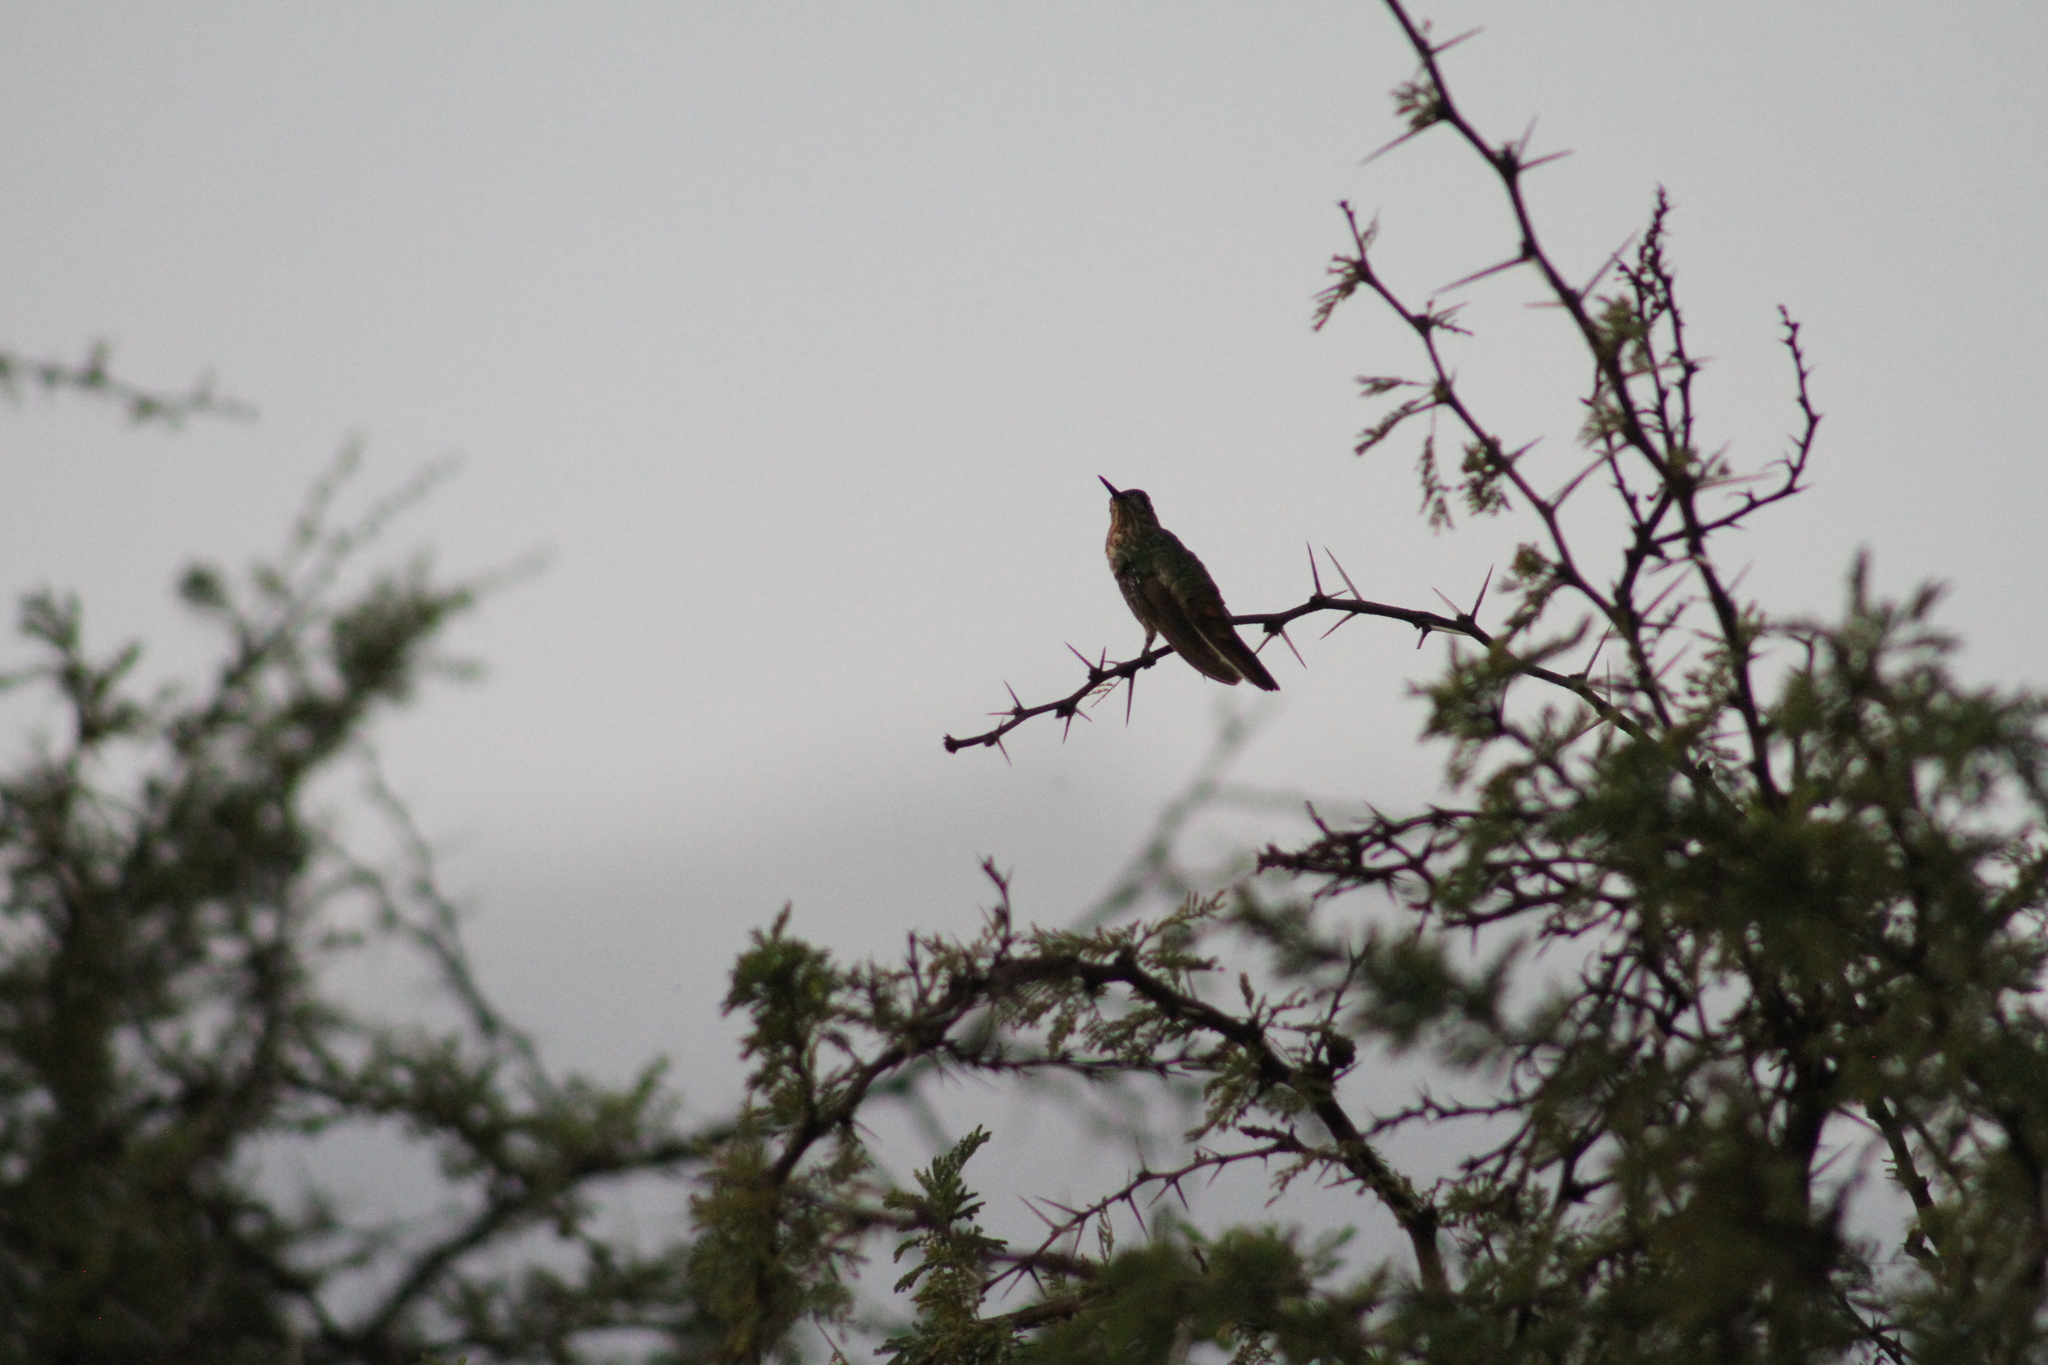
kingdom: Animalia
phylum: Chordata
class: Aves
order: Apodiformes
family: Trochilidae
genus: Chlorostilbon
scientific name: Chlorostilbon lucidus
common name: Glittering-bellied emerald
